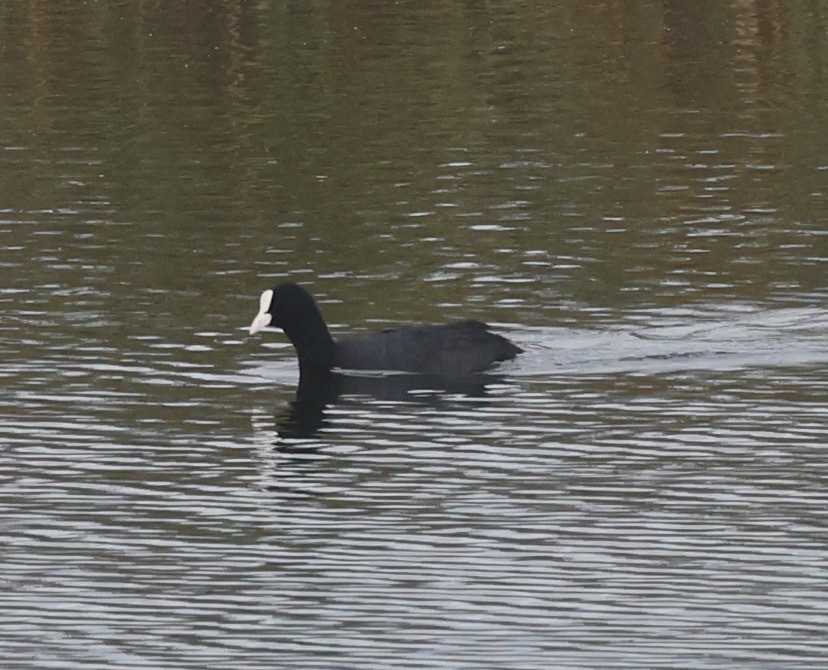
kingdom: Animalia
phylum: Chordata
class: Aves
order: Gruiformes
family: Rallidae
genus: Fulica
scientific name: Fulica atra
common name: Eurasian coot
